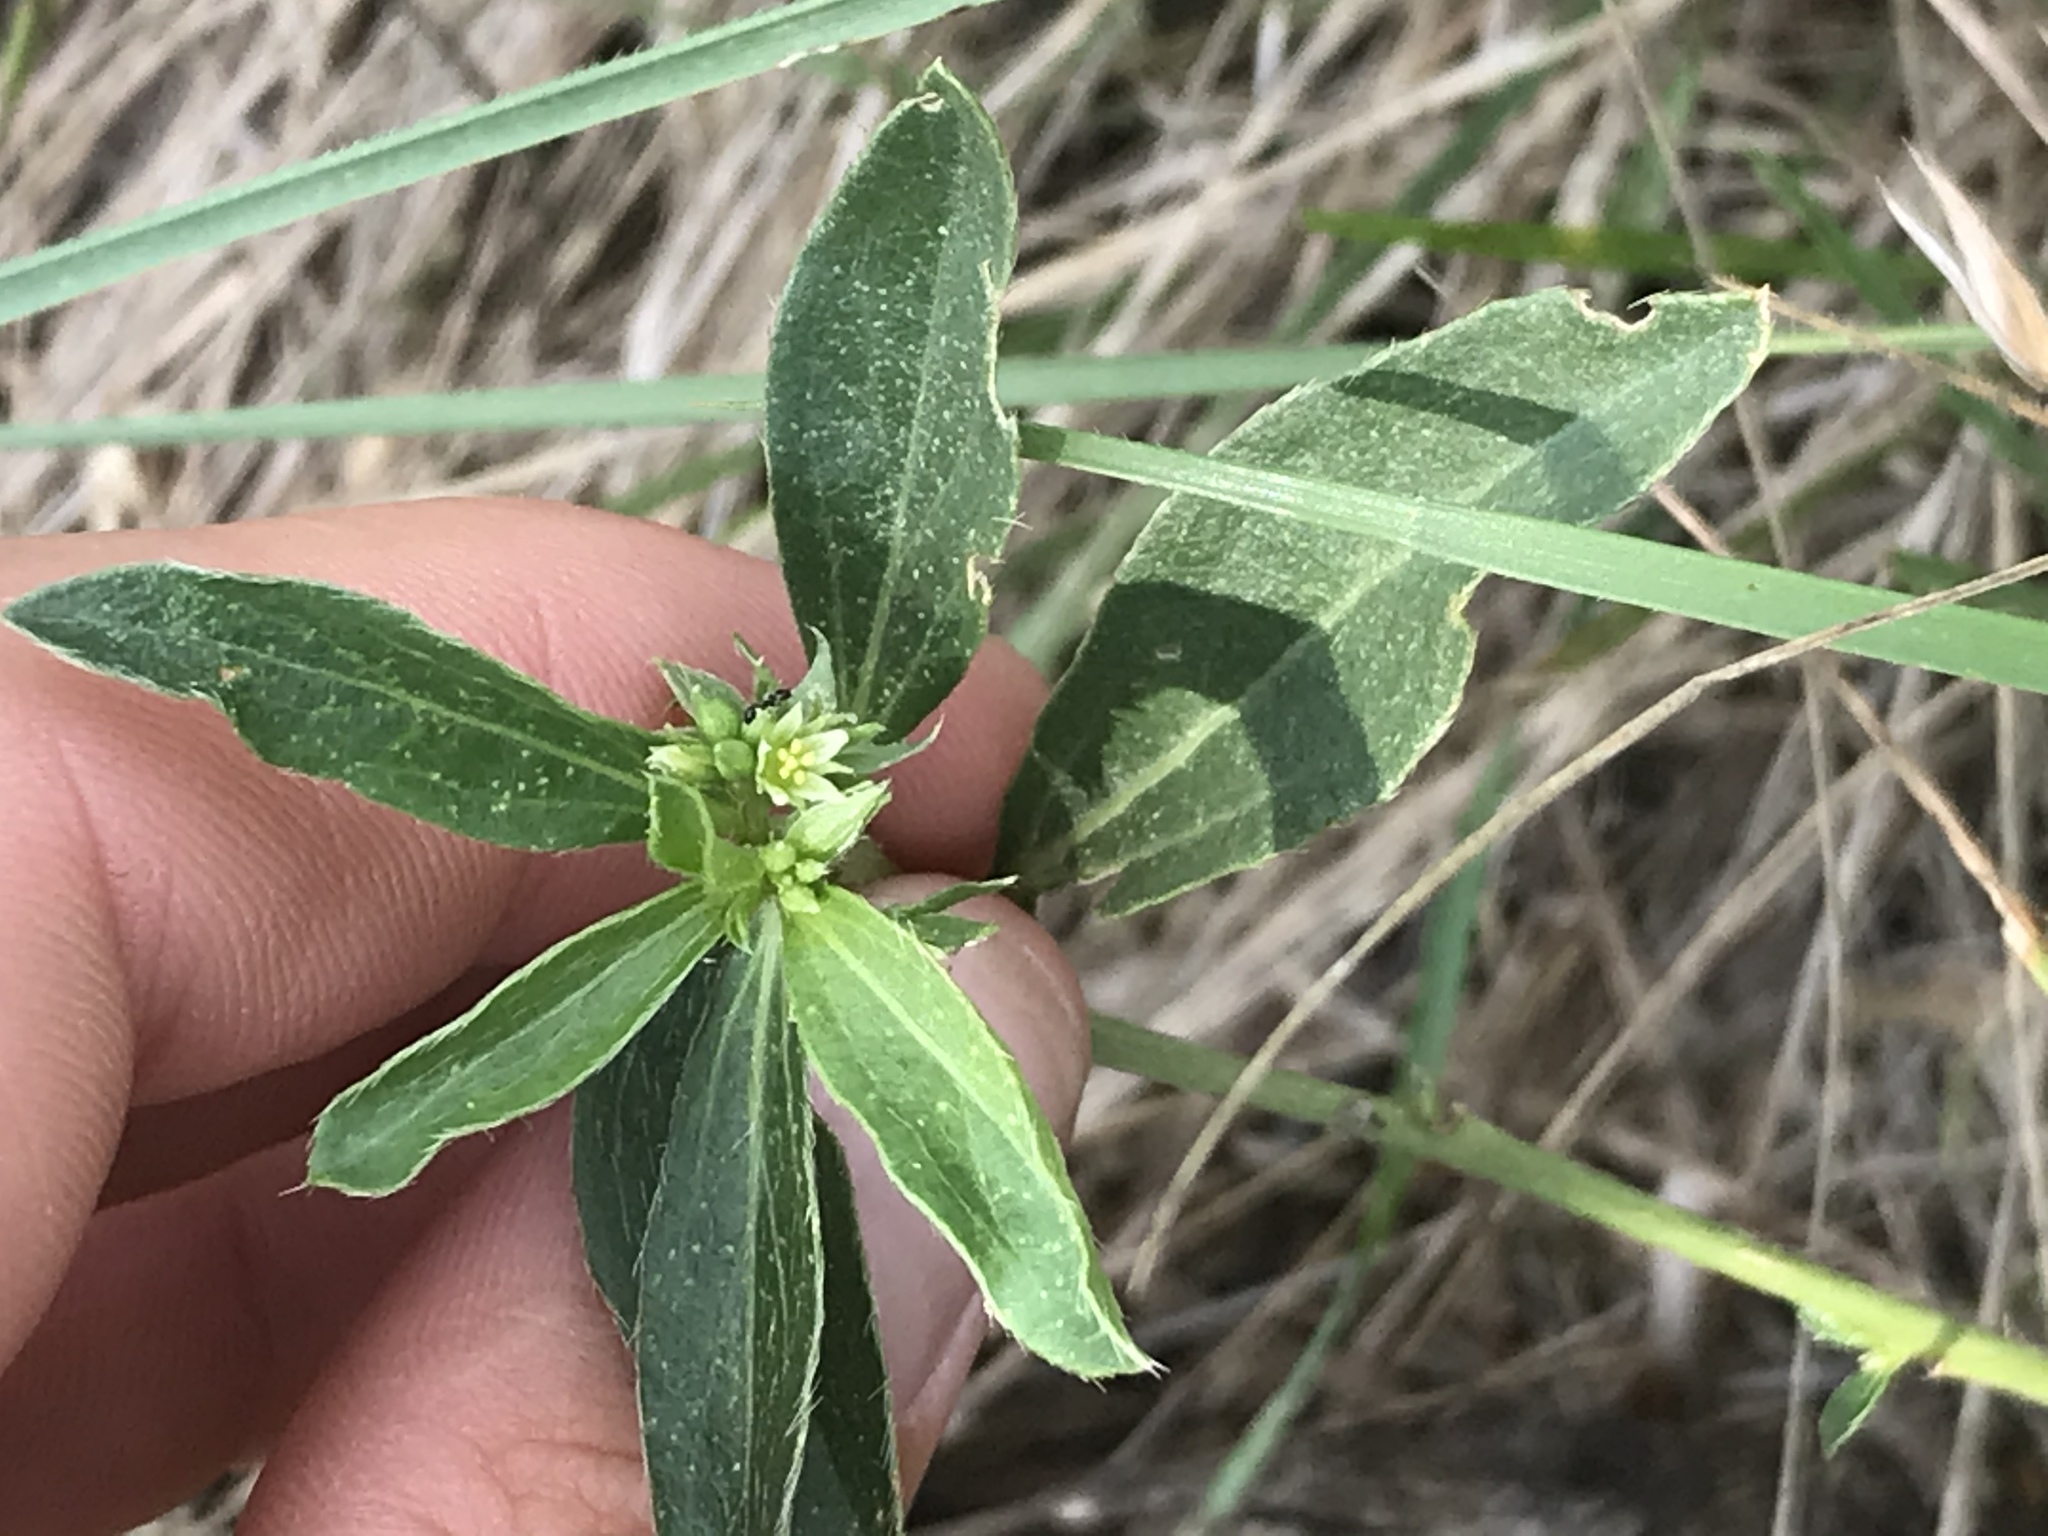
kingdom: Plantae
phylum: Tracheophyta
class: Magnoliopsida
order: Malpighiales
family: Euphorbiaceae
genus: Ditaxis
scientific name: Ditaxis humilis
